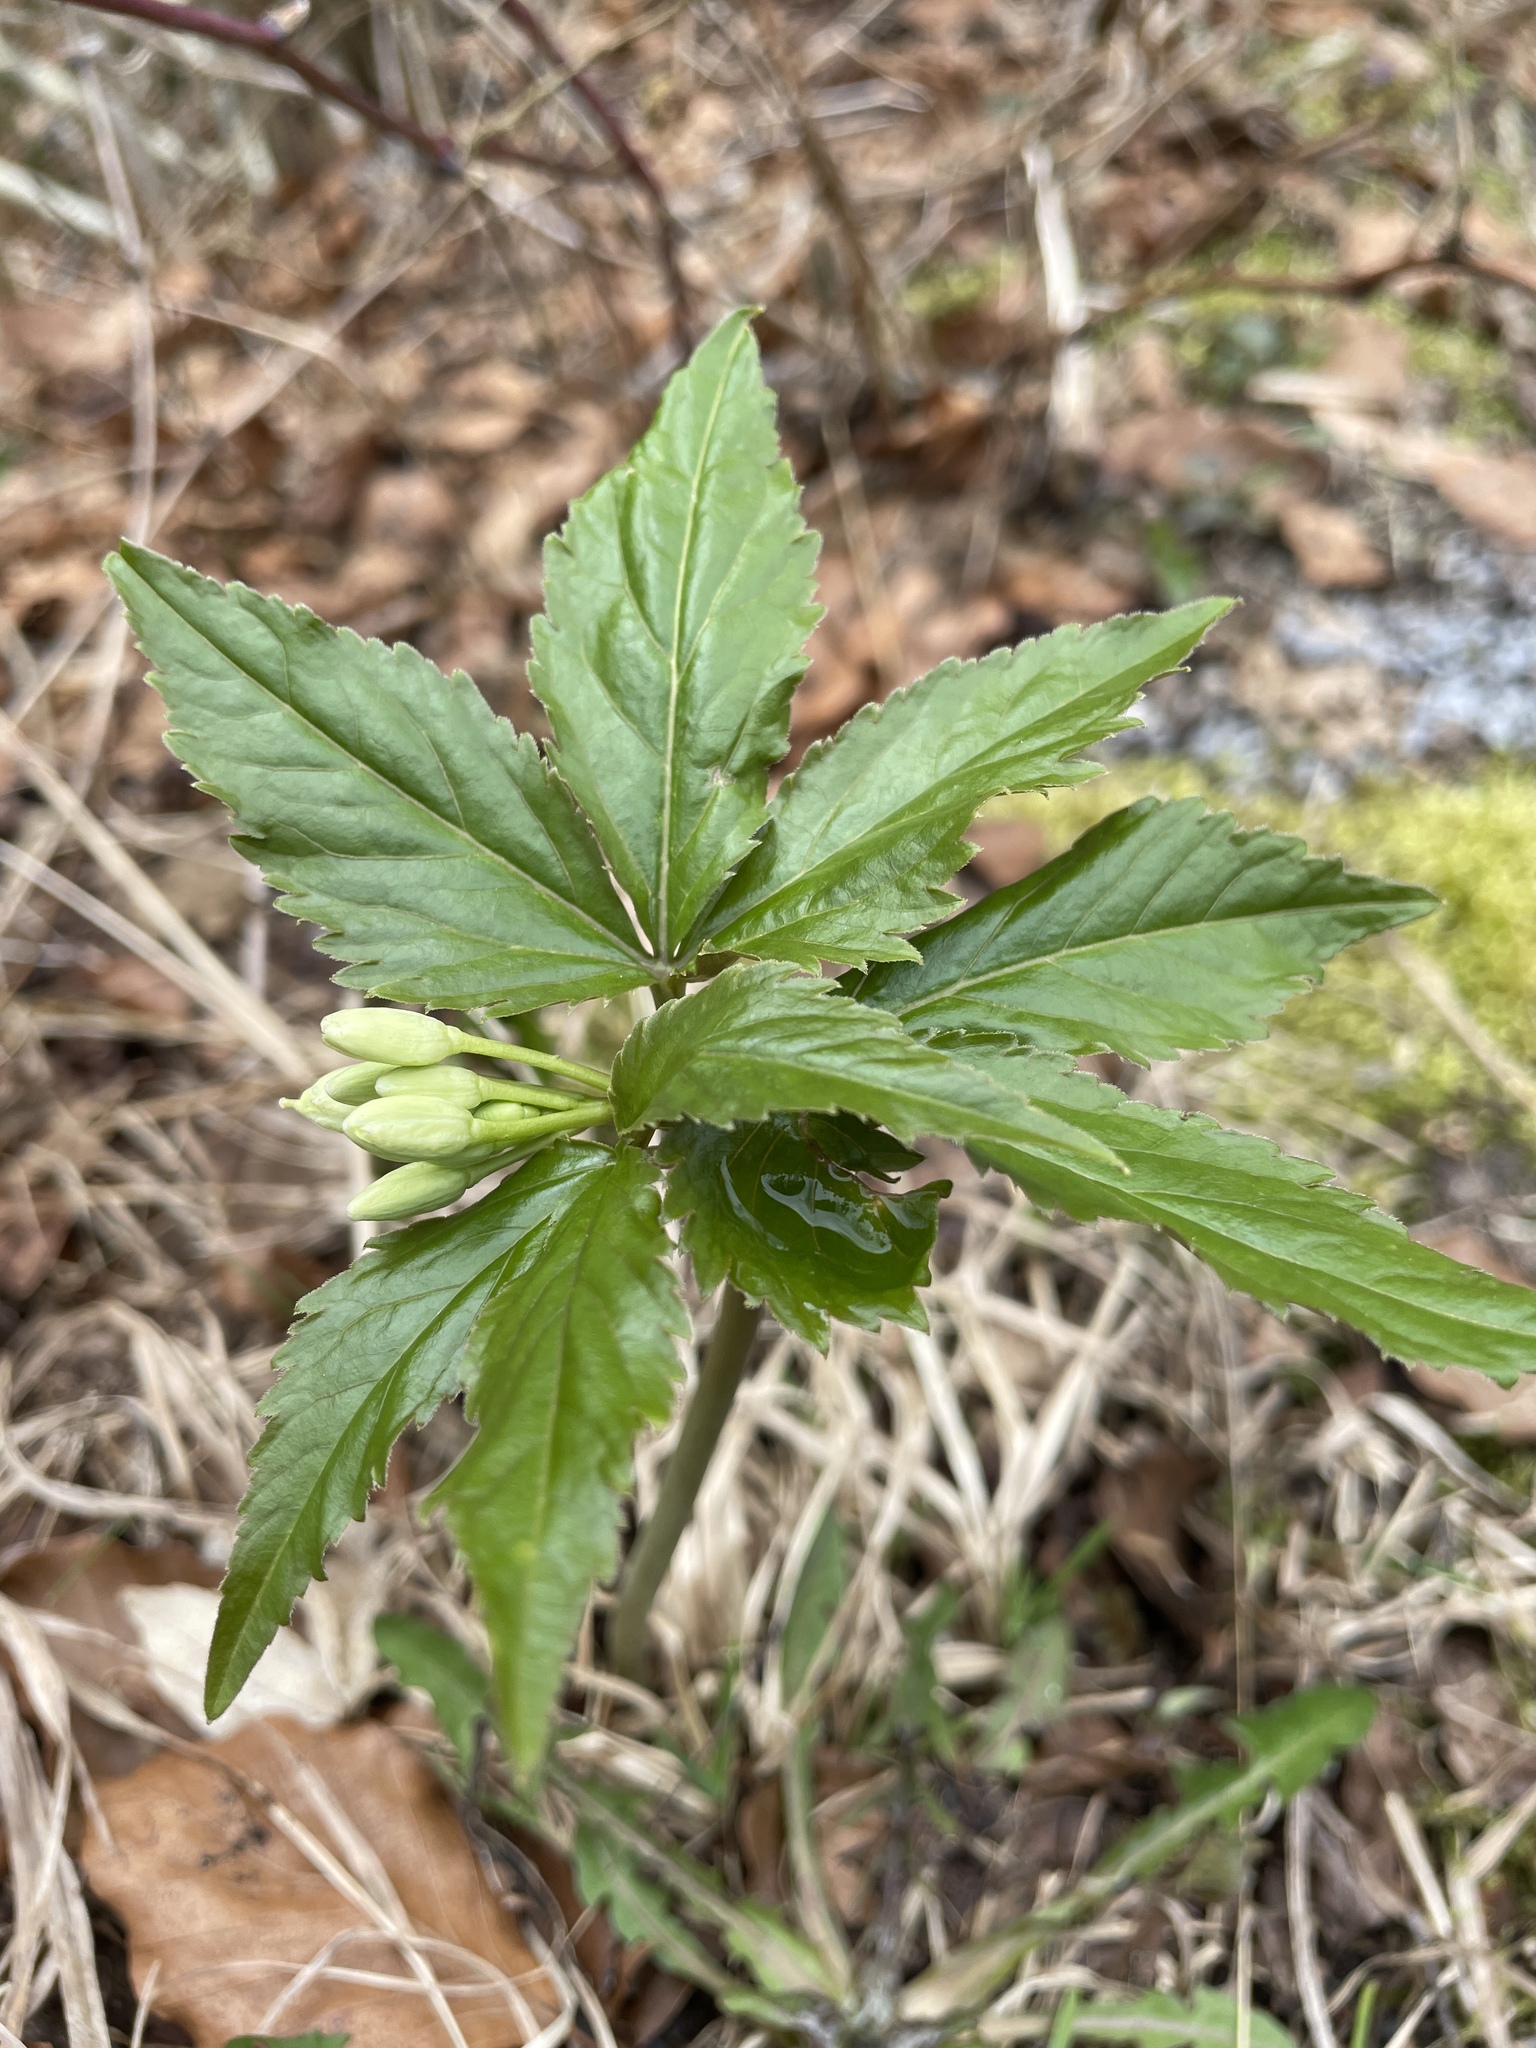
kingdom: Plantae
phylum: Tracheophyta
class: Magnoliopsida
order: Brassicales
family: Brassicaceae
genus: Cardamine
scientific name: Cardamine enneaphyllos
